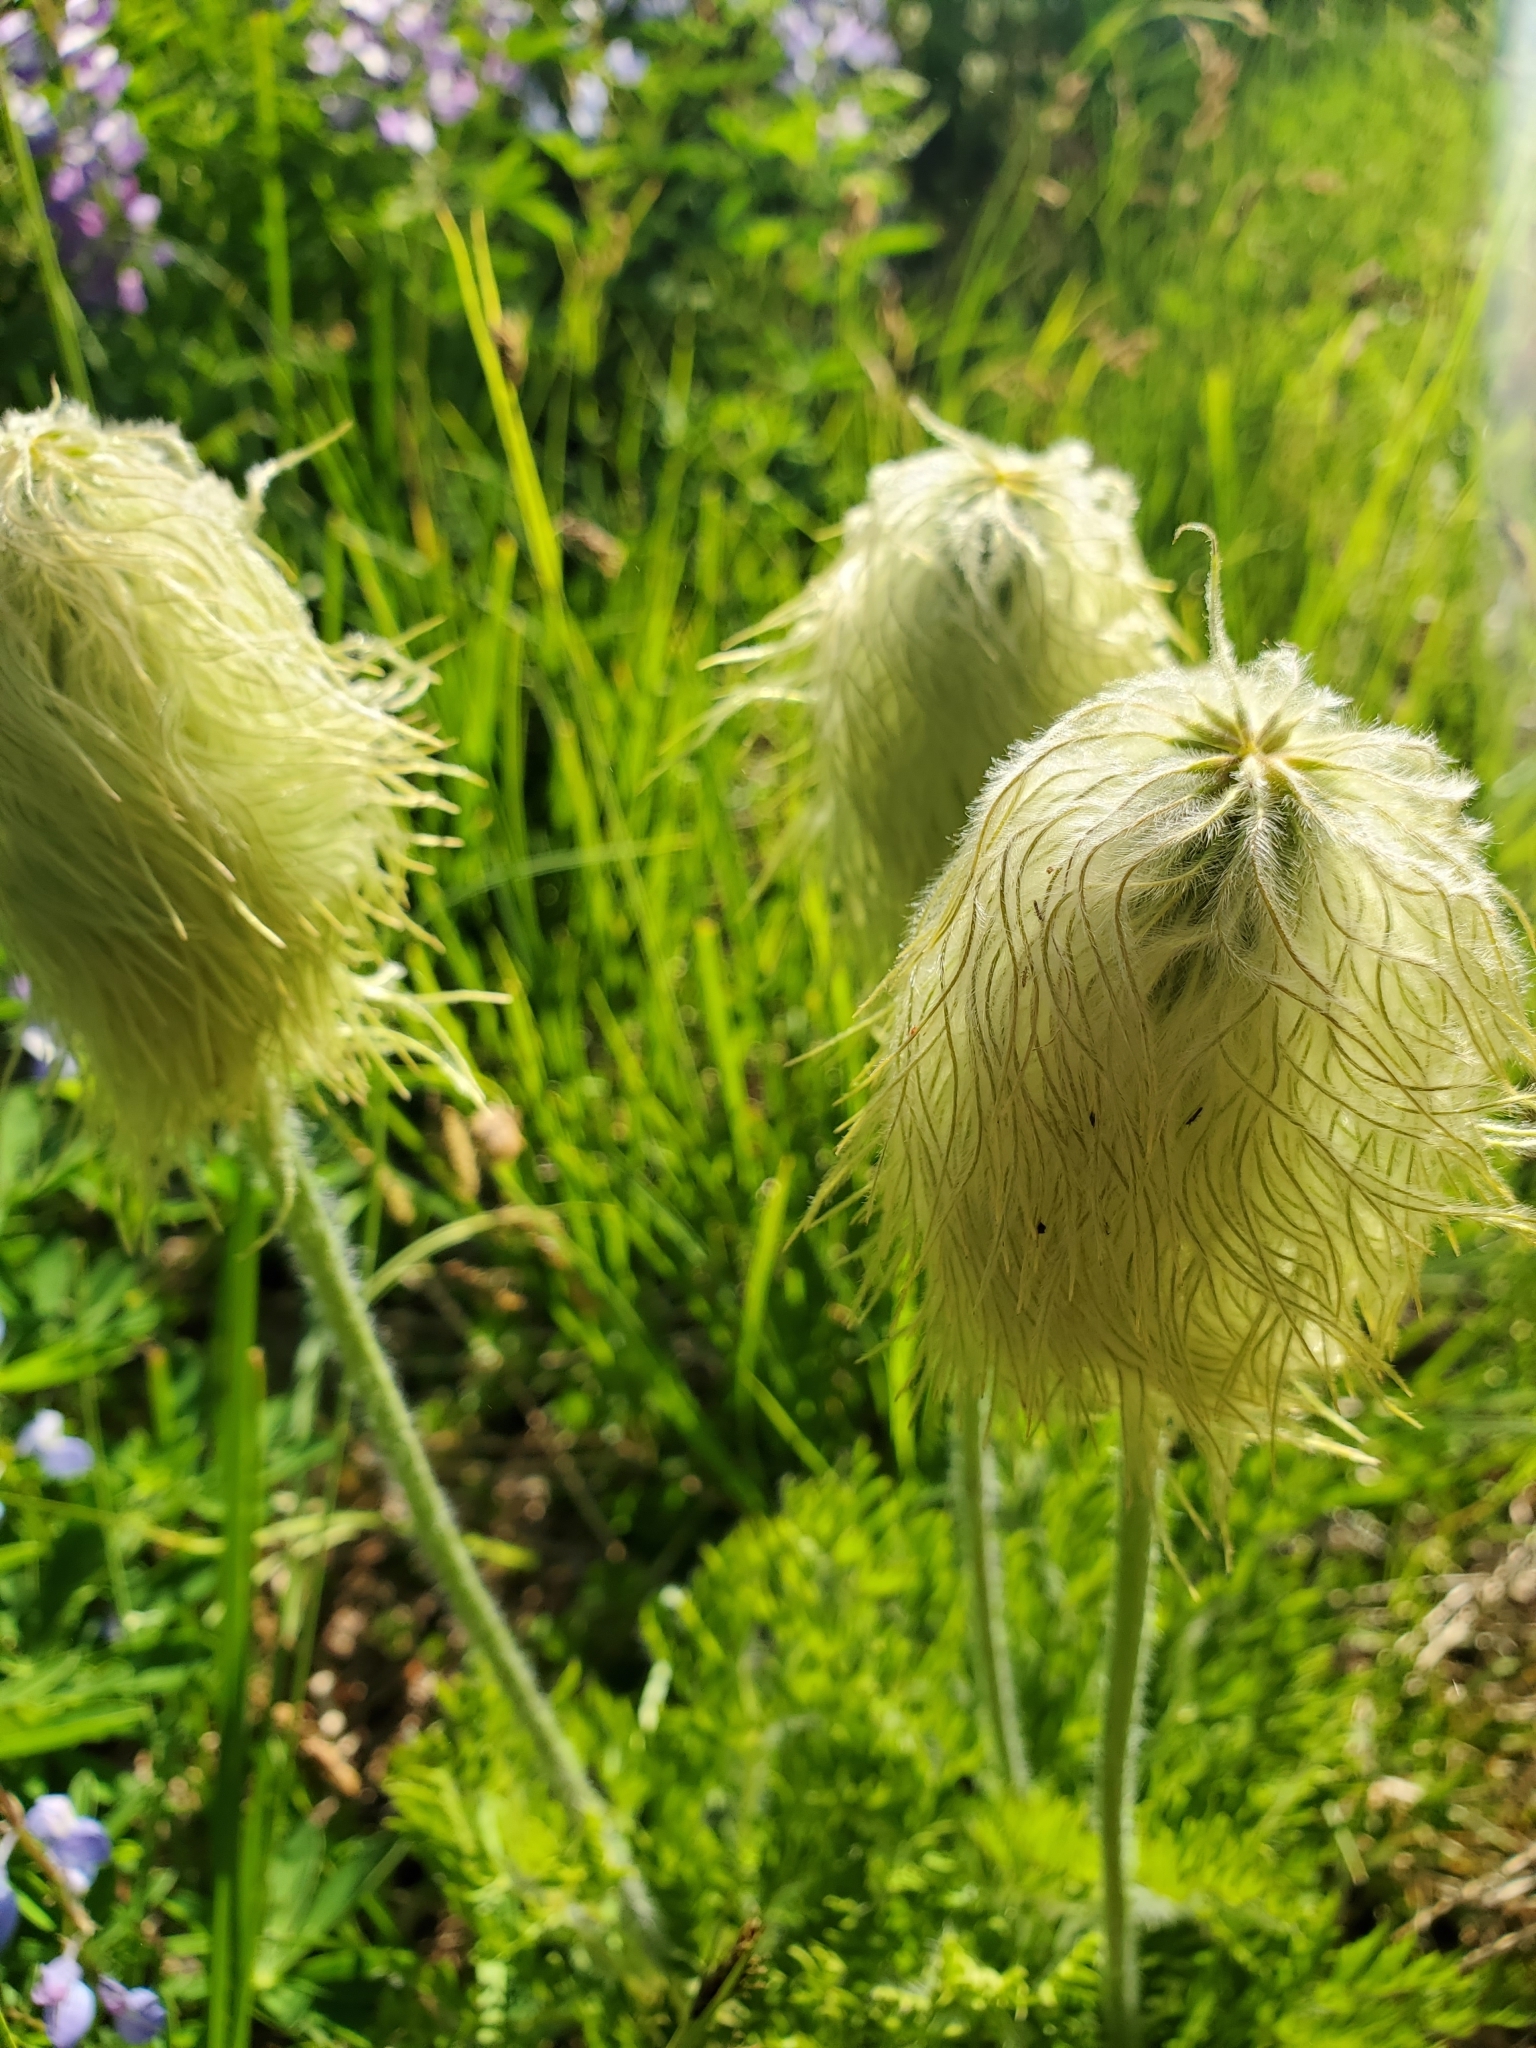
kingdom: Plantae
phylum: Tracheophyta
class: Magnoliopsida
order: Ranunculales
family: Ranunculaceae
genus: Pulsatilla
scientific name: Pulsatilla occidentalis
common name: Mountain pasqueflower
